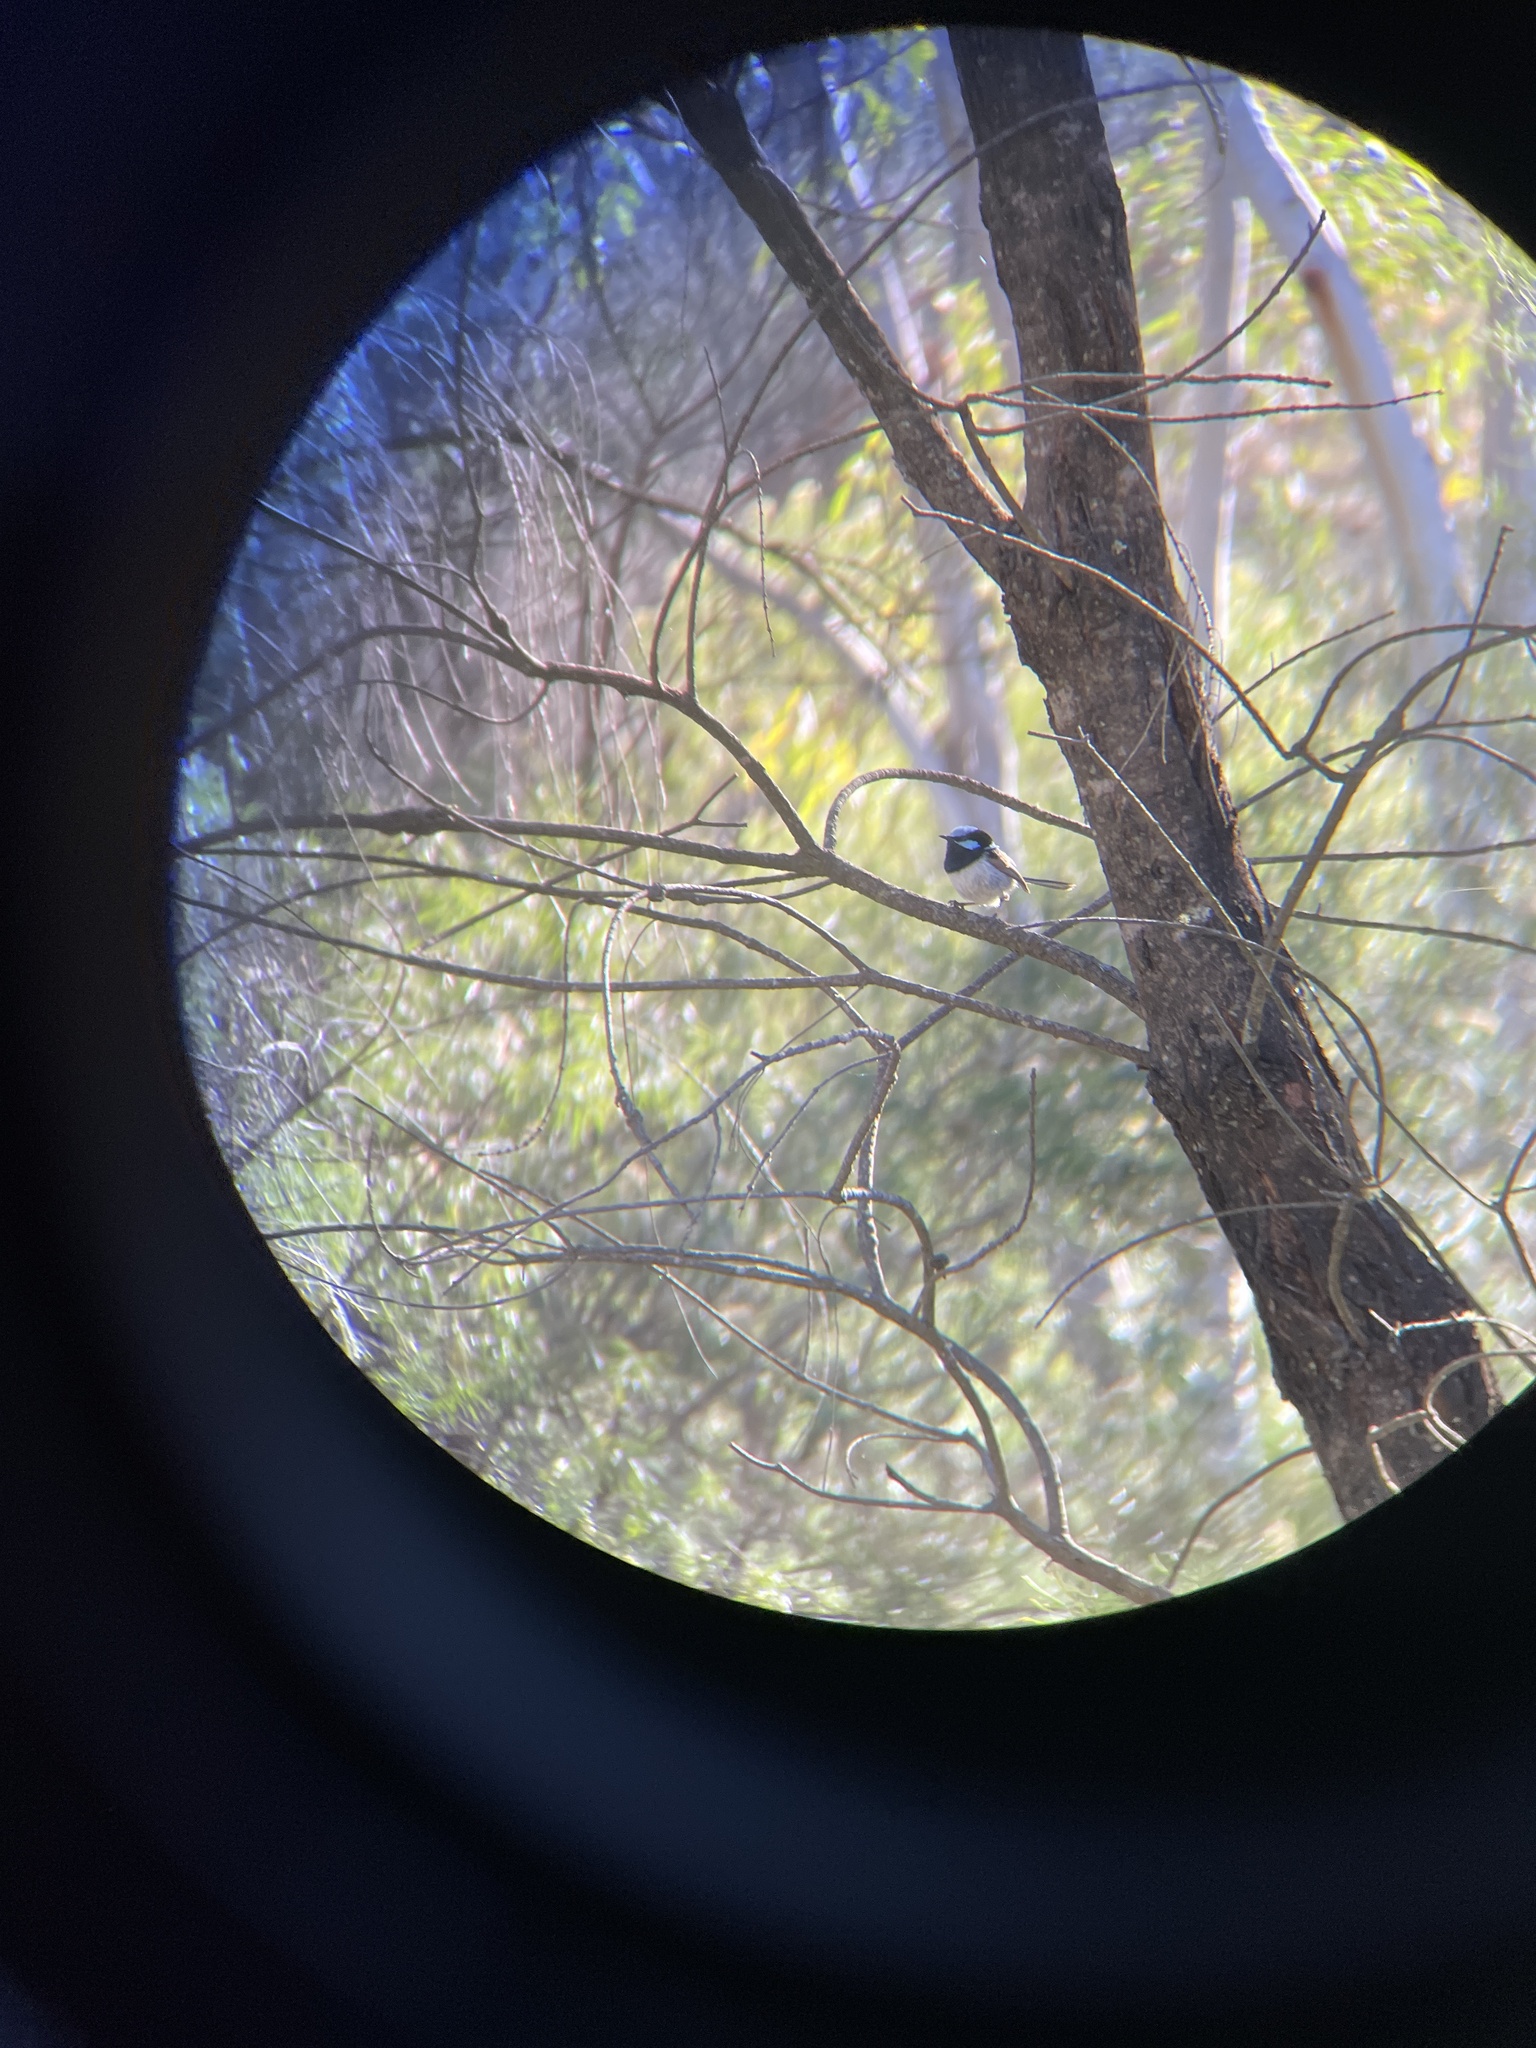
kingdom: Animalia
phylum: Chordata
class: Aves
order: Passeriformes
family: Maluridae
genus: Malurus
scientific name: Malurus cyaneus
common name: Superb fairywren
